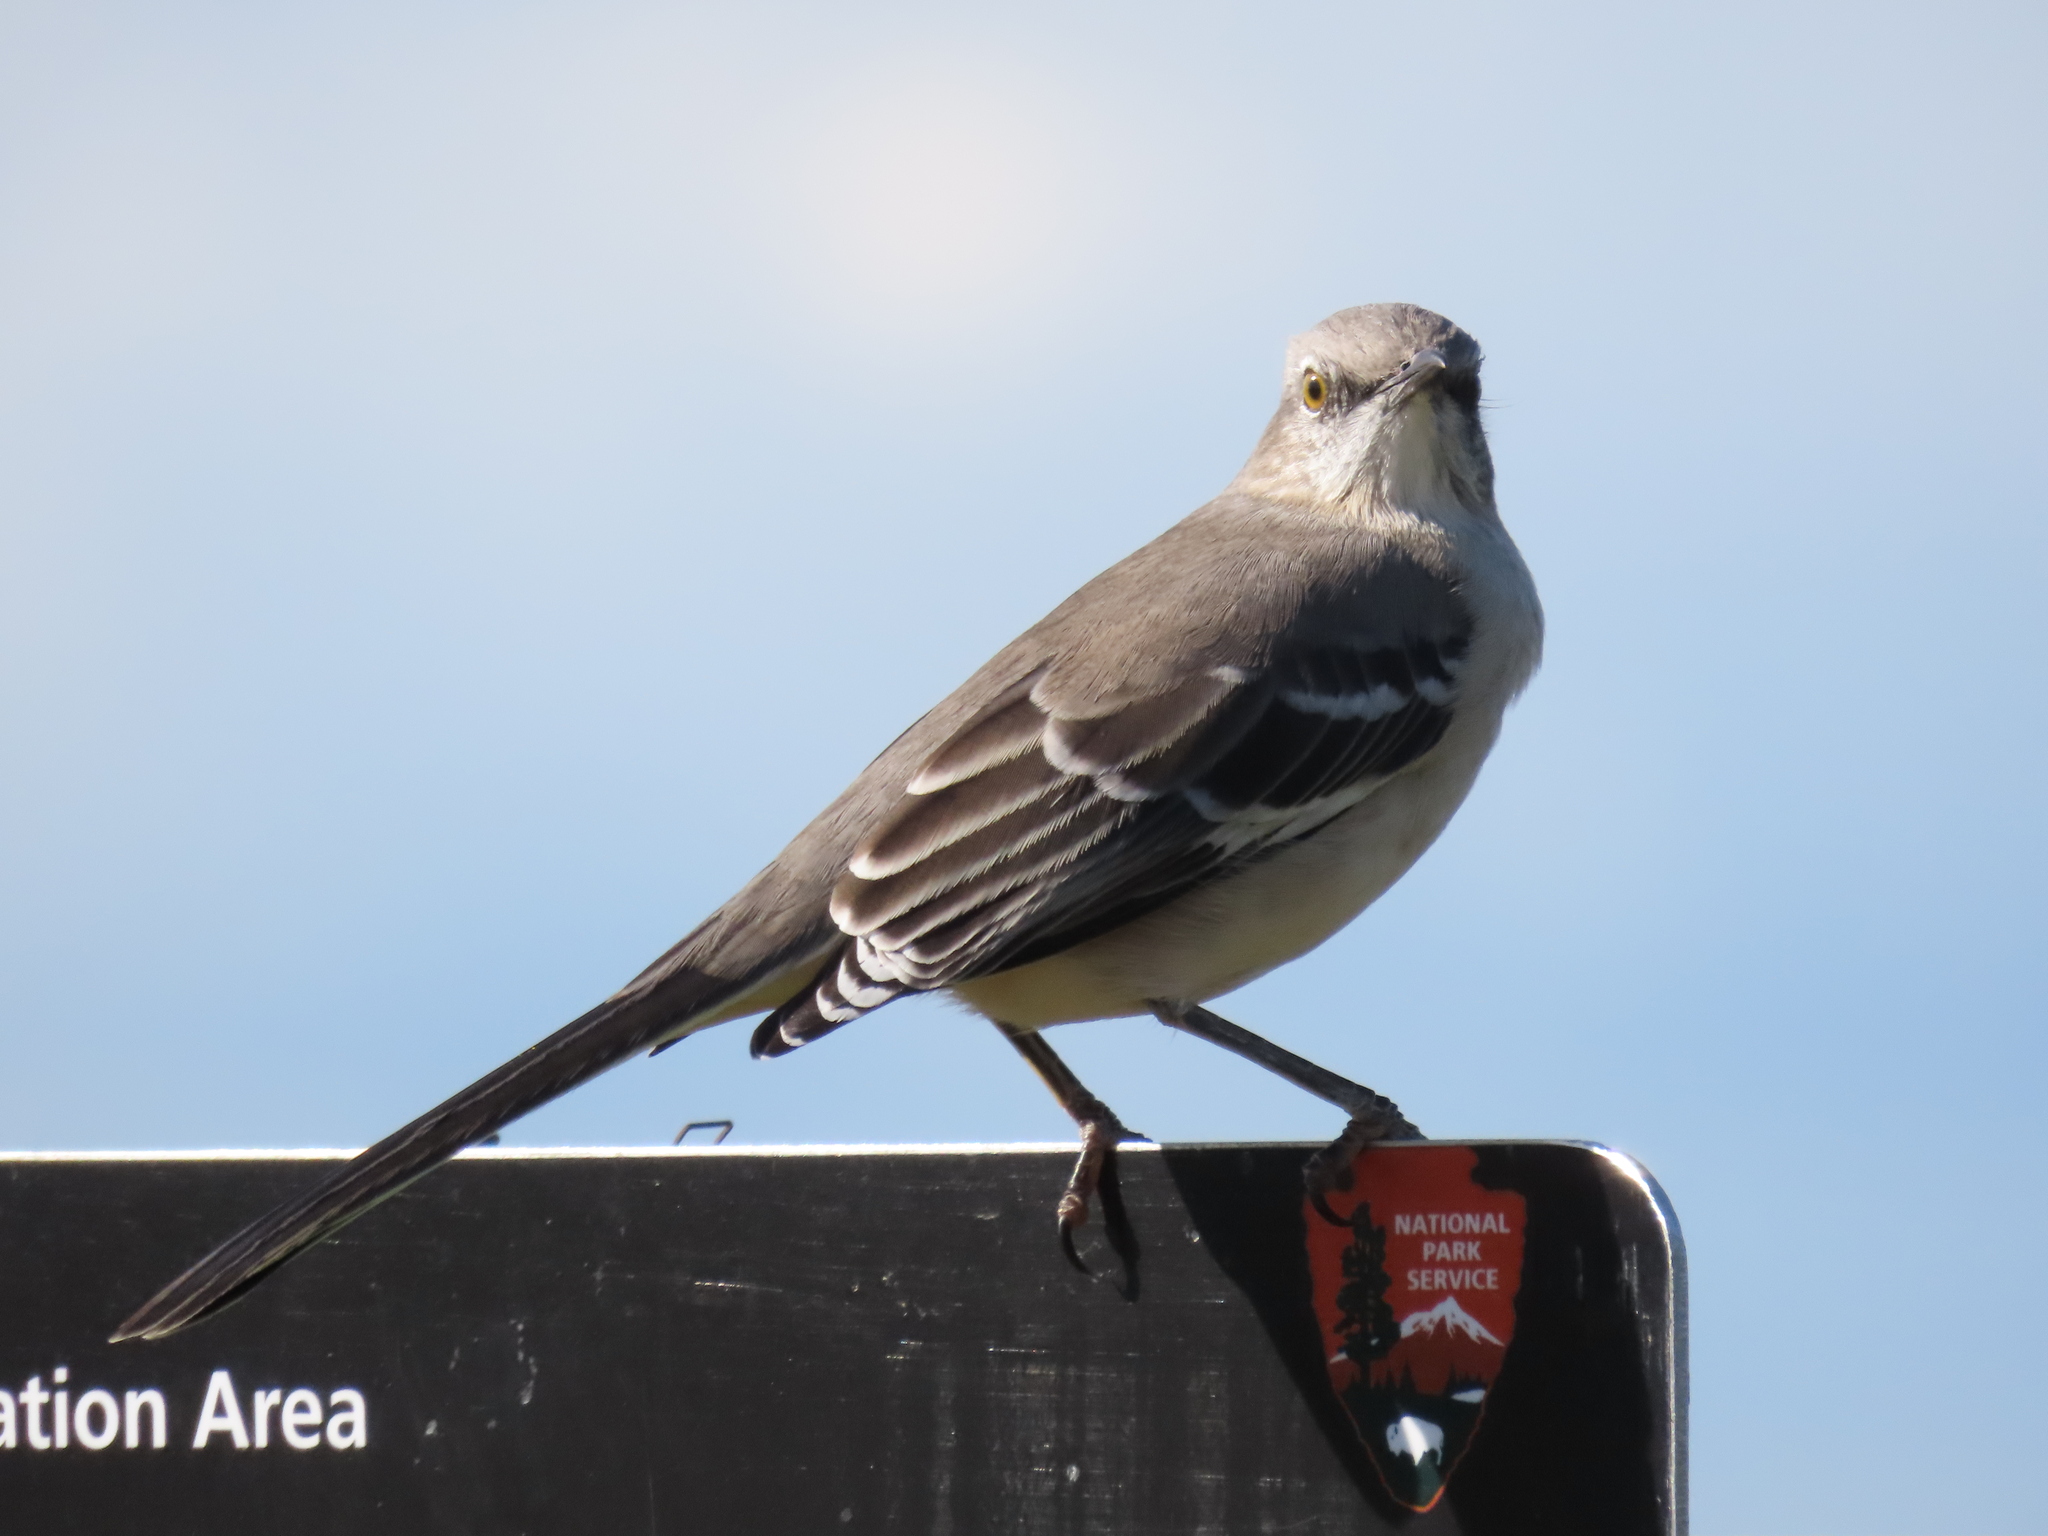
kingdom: Animalia
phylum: Chordata
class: Aves
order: Passeriformes
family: Mimidae
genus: Mimus
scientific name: Mimus polyglottos
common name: Northern mockingbird
